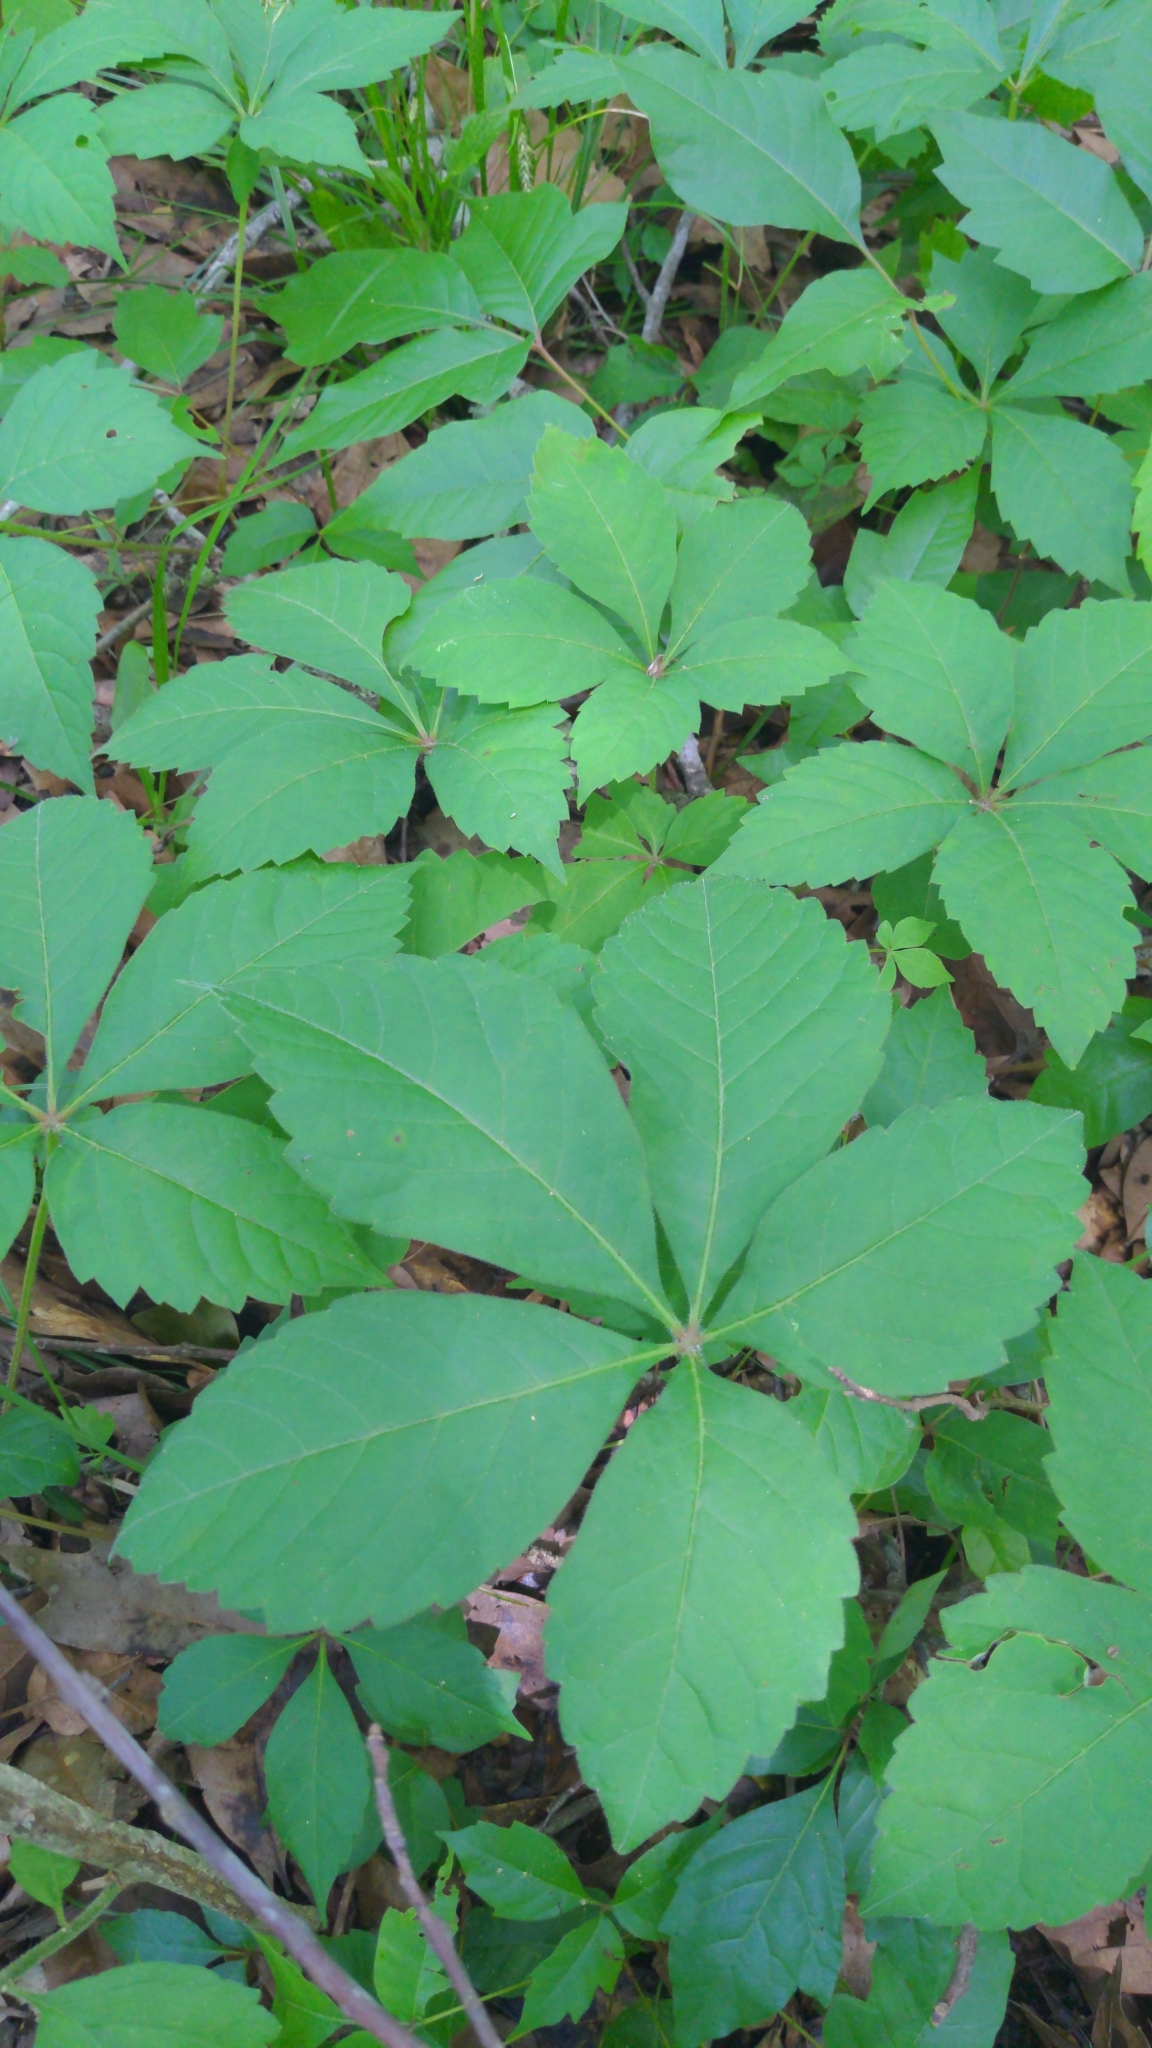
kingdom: Plantae
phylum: Tracheophyta
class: Magnoliopsida
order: Vitales
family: Vitaceae
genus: Parthenocissus
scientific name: Parthenocissus quinquefolia
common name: Virginia-creeper
